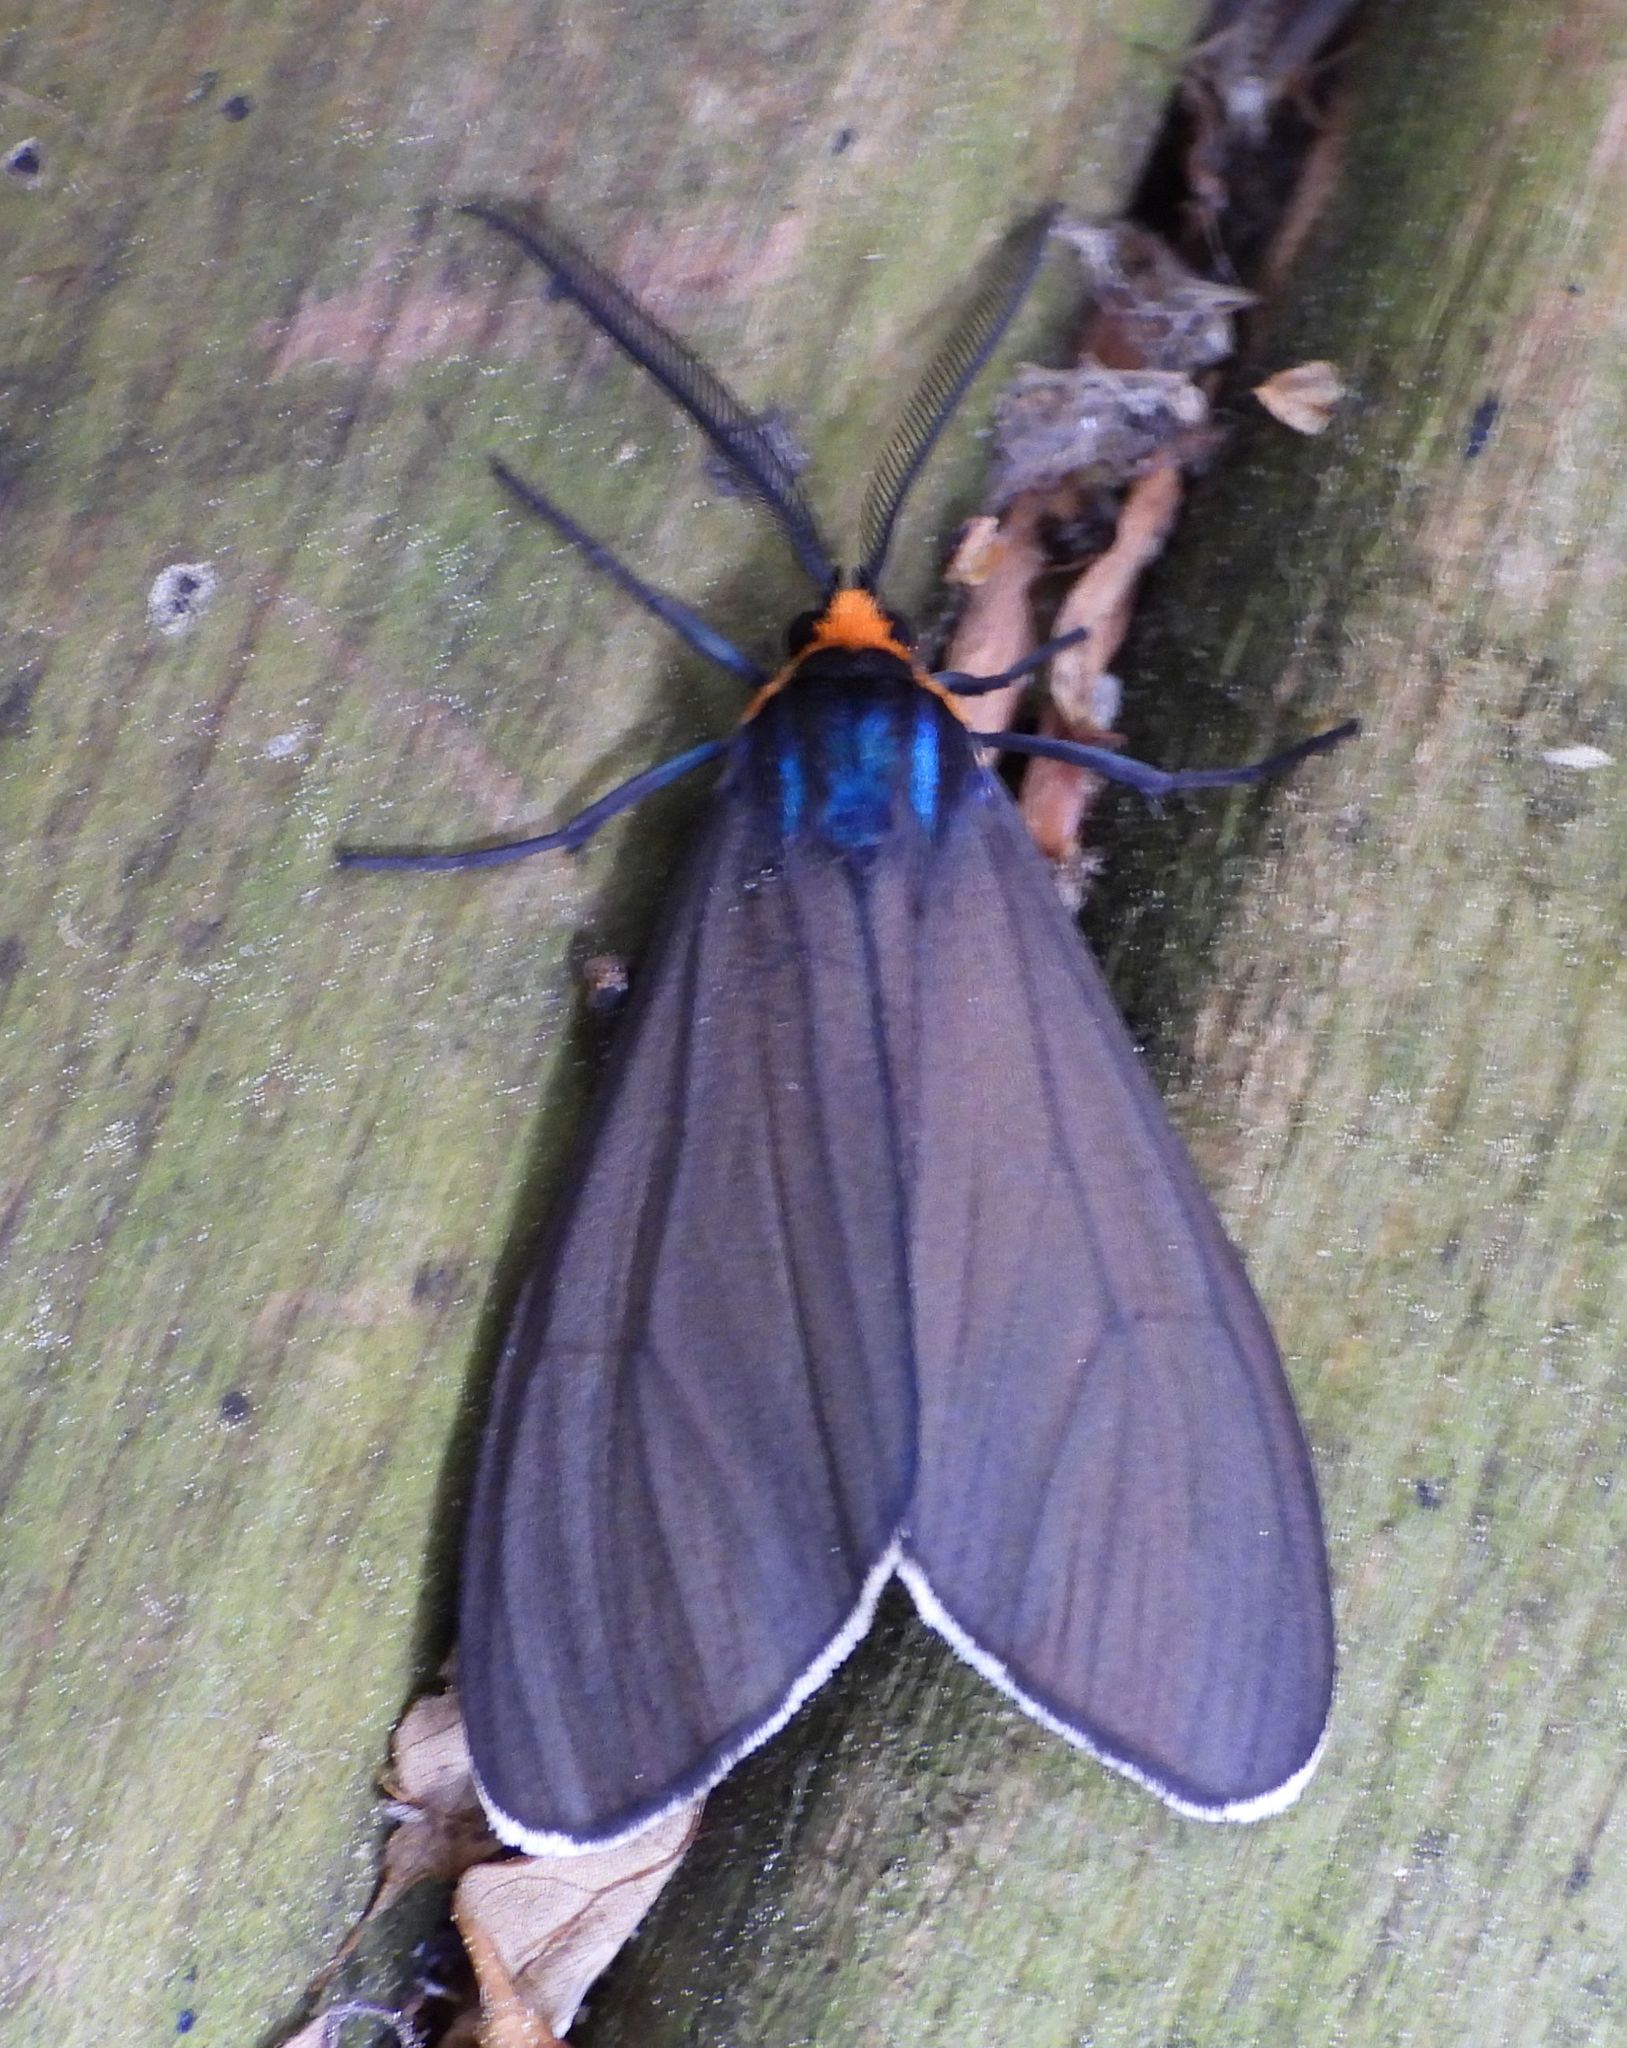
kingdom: Animalia
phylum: Arthropoda
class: Insecta
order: Lepidoptera
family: Erebidae
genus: Ctenucha
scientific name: Ctenucha virginica
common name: Virginia ctenucha moth
